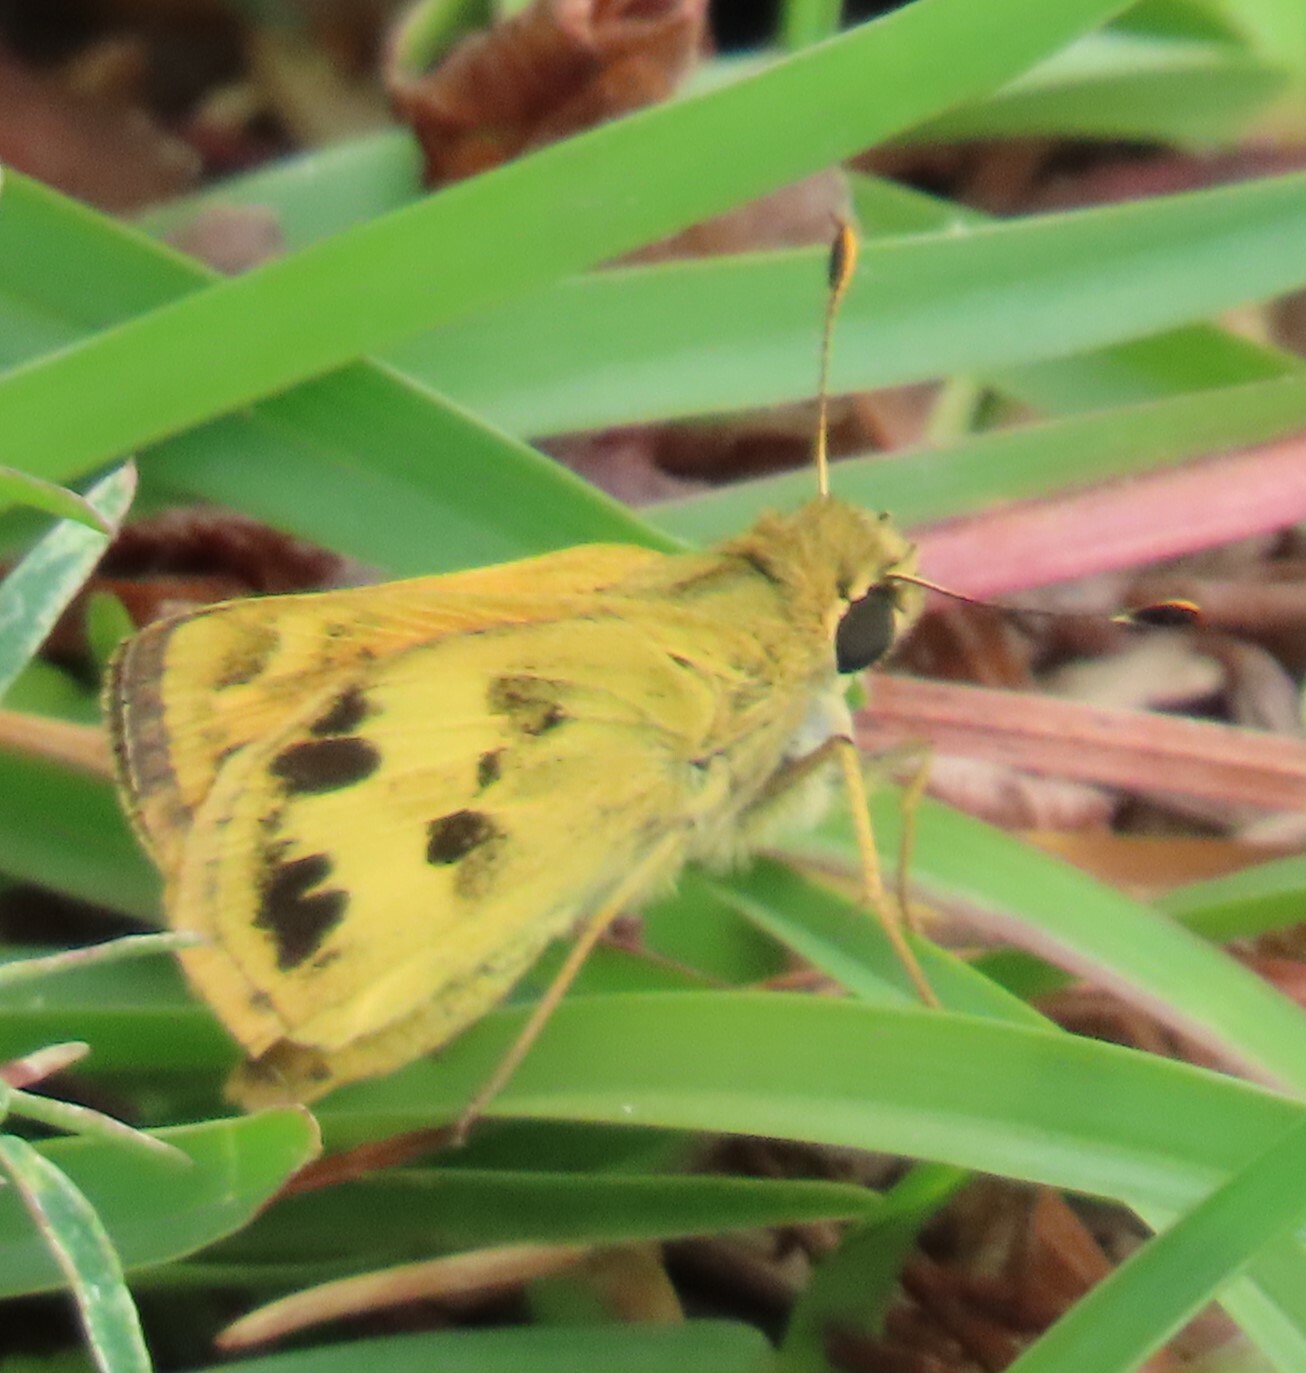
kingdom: Animalia
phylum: Arthropoda
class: Insecta
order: Lepidoptera
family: Hesperiidae
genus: Polites
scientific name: Polites vibex
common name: Whirlabout
